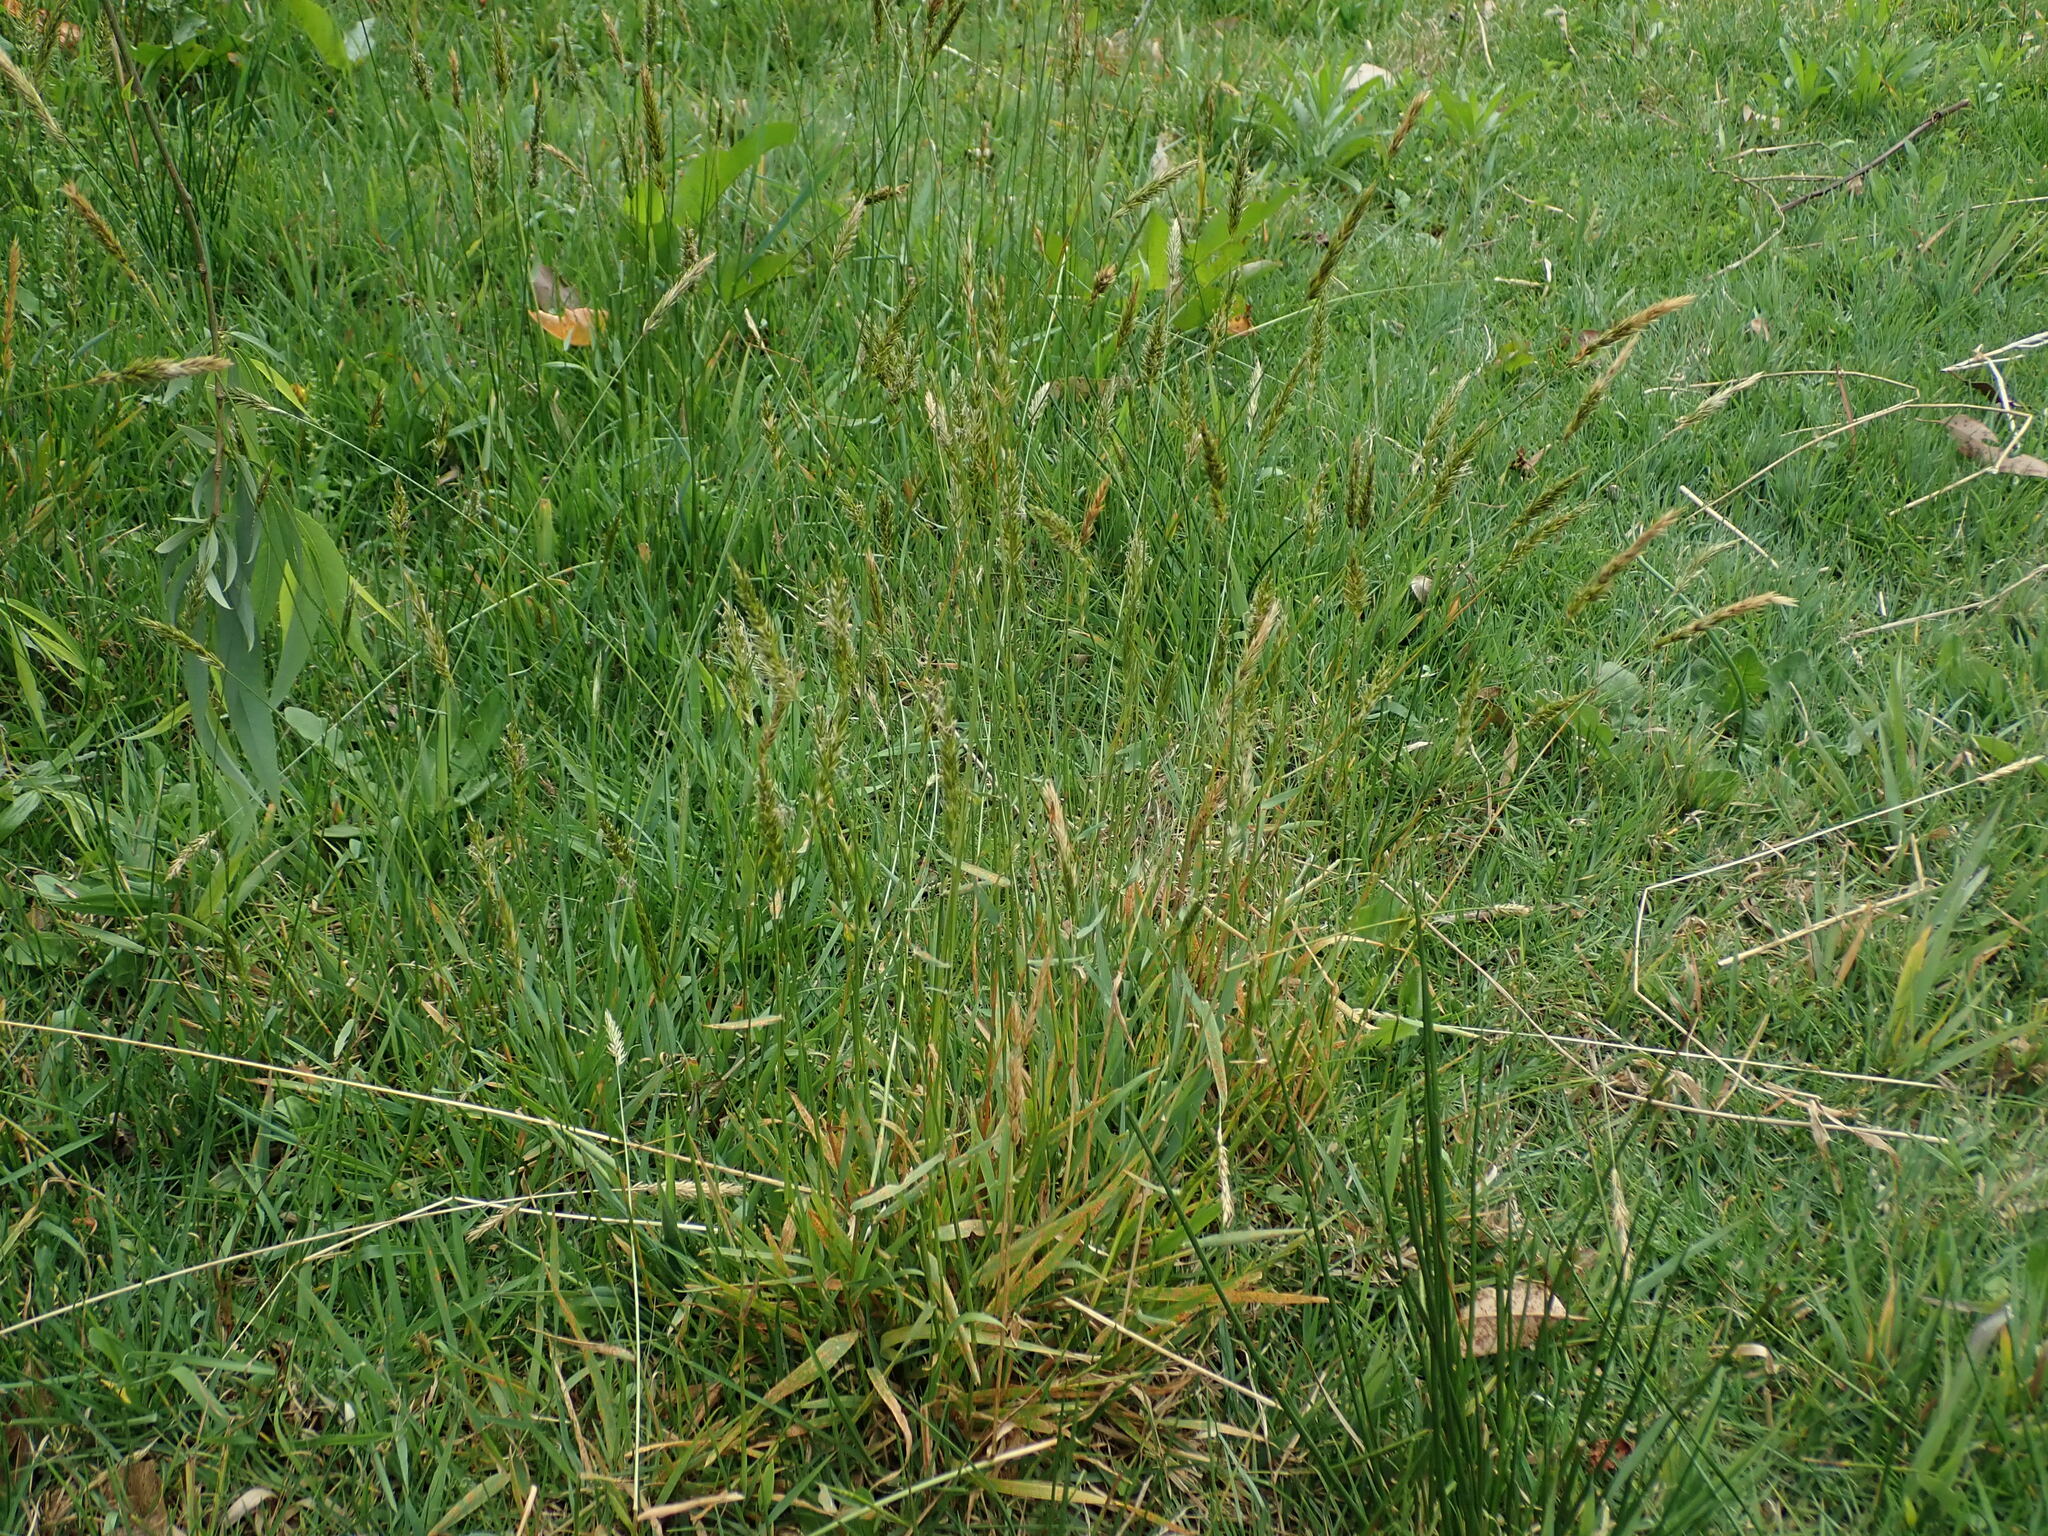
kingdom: Plantae
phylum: Tracheophyta
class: Liliopsida
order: Poales
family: Poaceae
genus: Anthoxanthum
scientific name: Anthoxanthum odoratum
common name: Sweet vernalgrass
